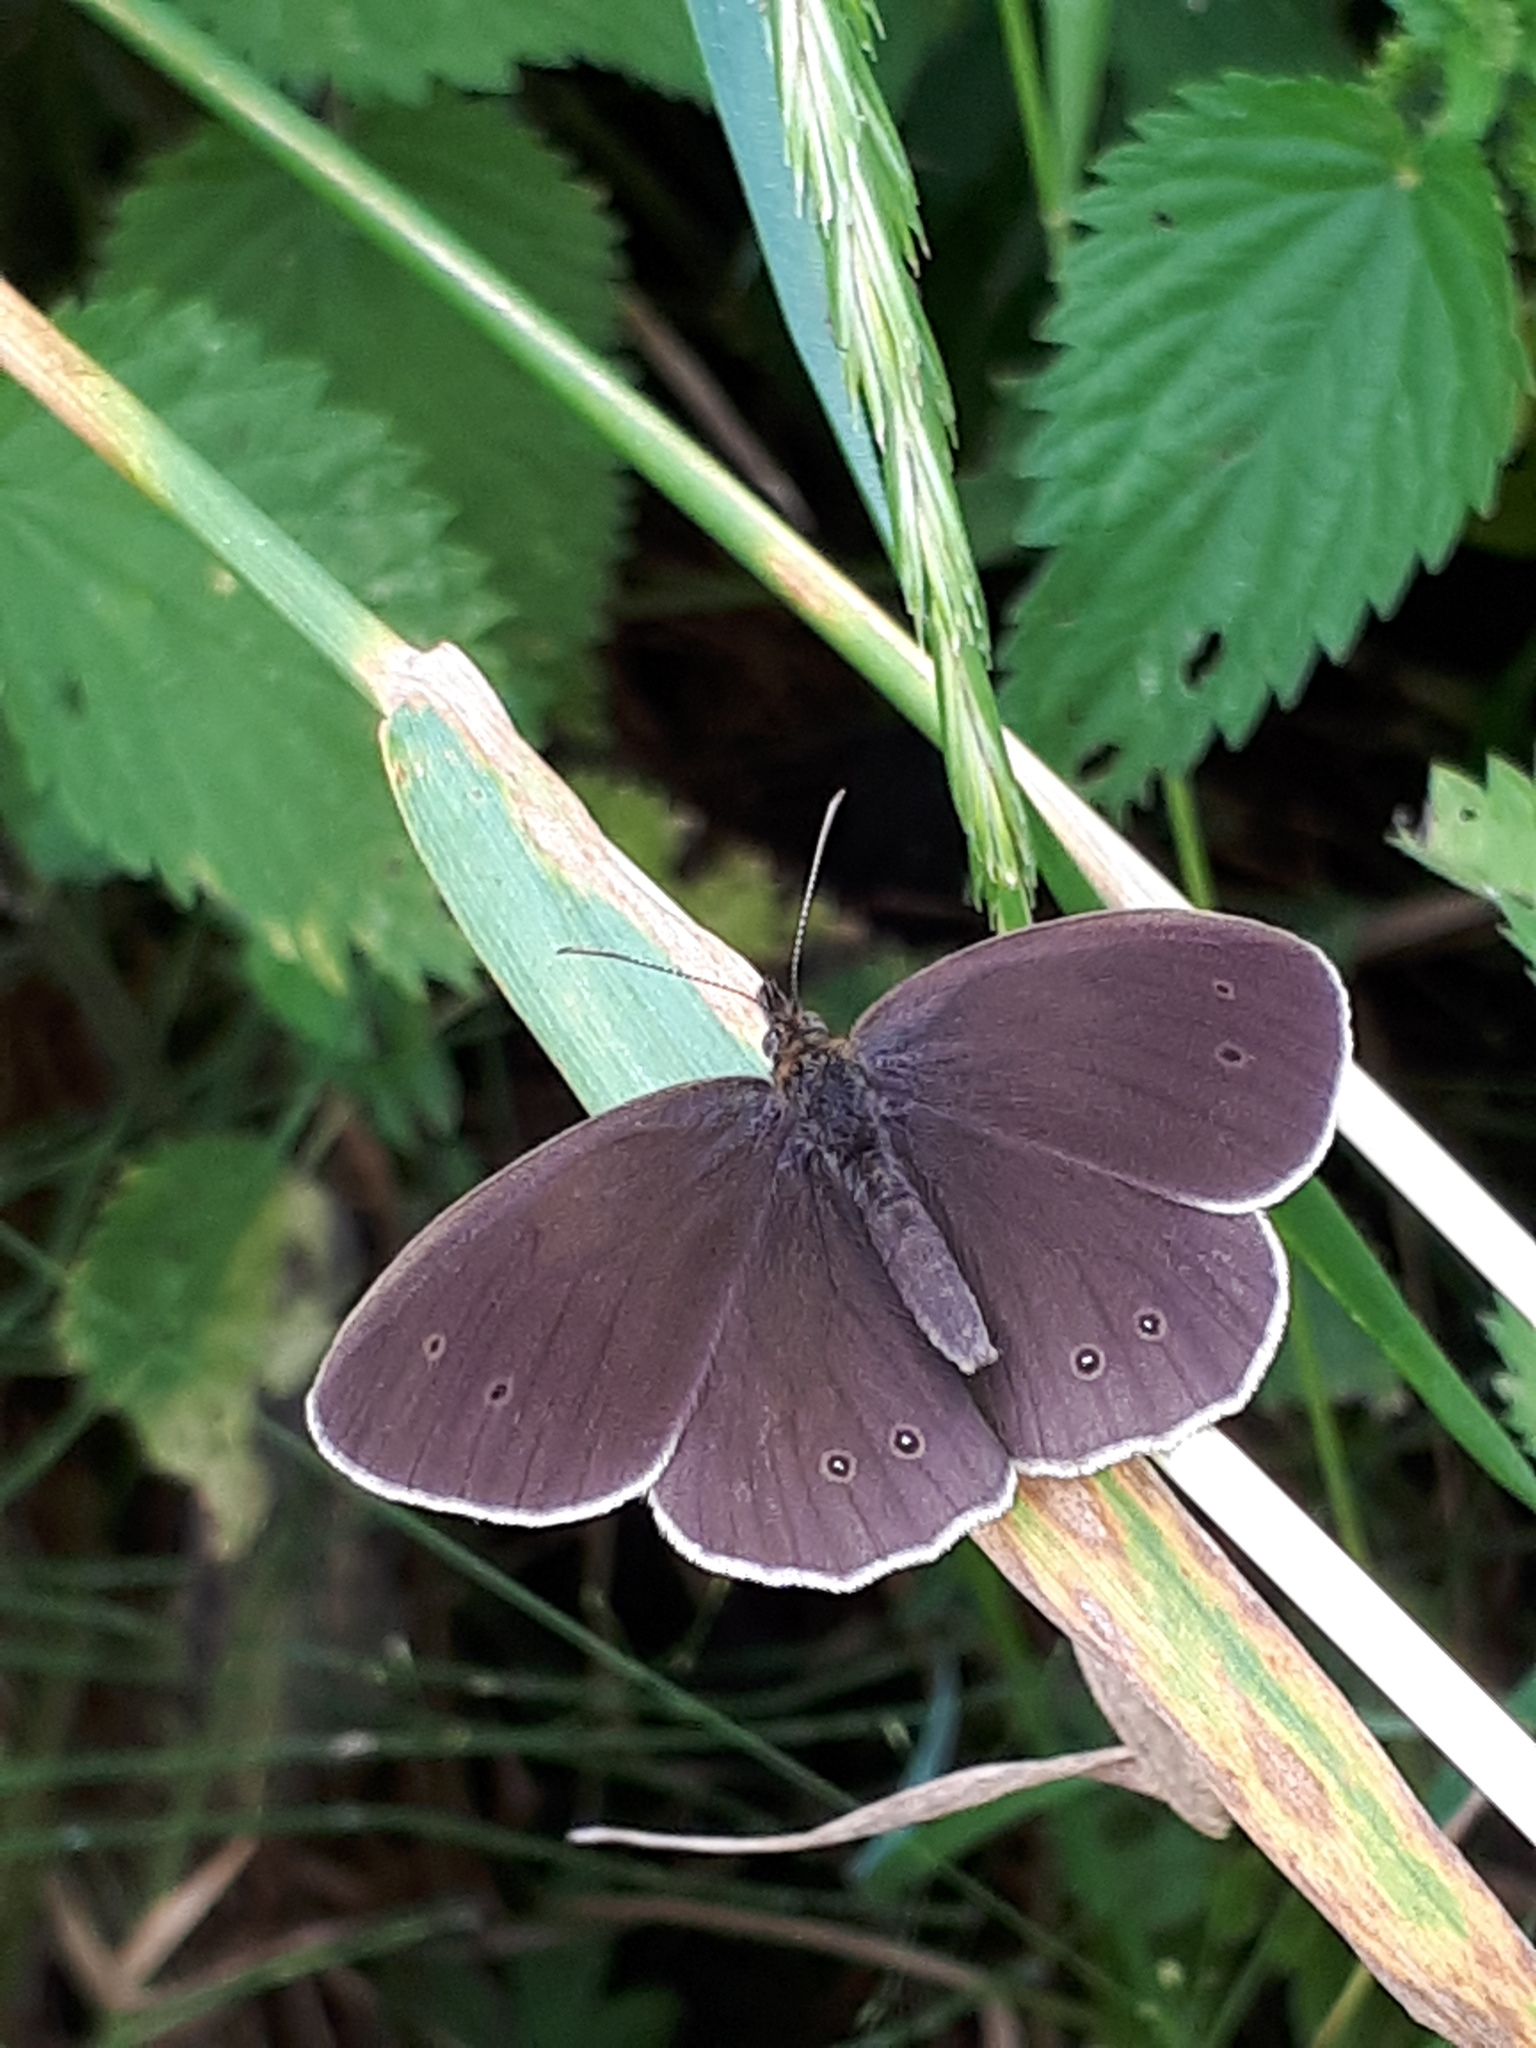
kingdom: Animalia
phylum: Arthropoda
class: Insecta
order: Lepidoptera
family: Nymphalidae
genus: Aphantopus
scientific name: Aphantopus hyperantus
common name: Ringlet
